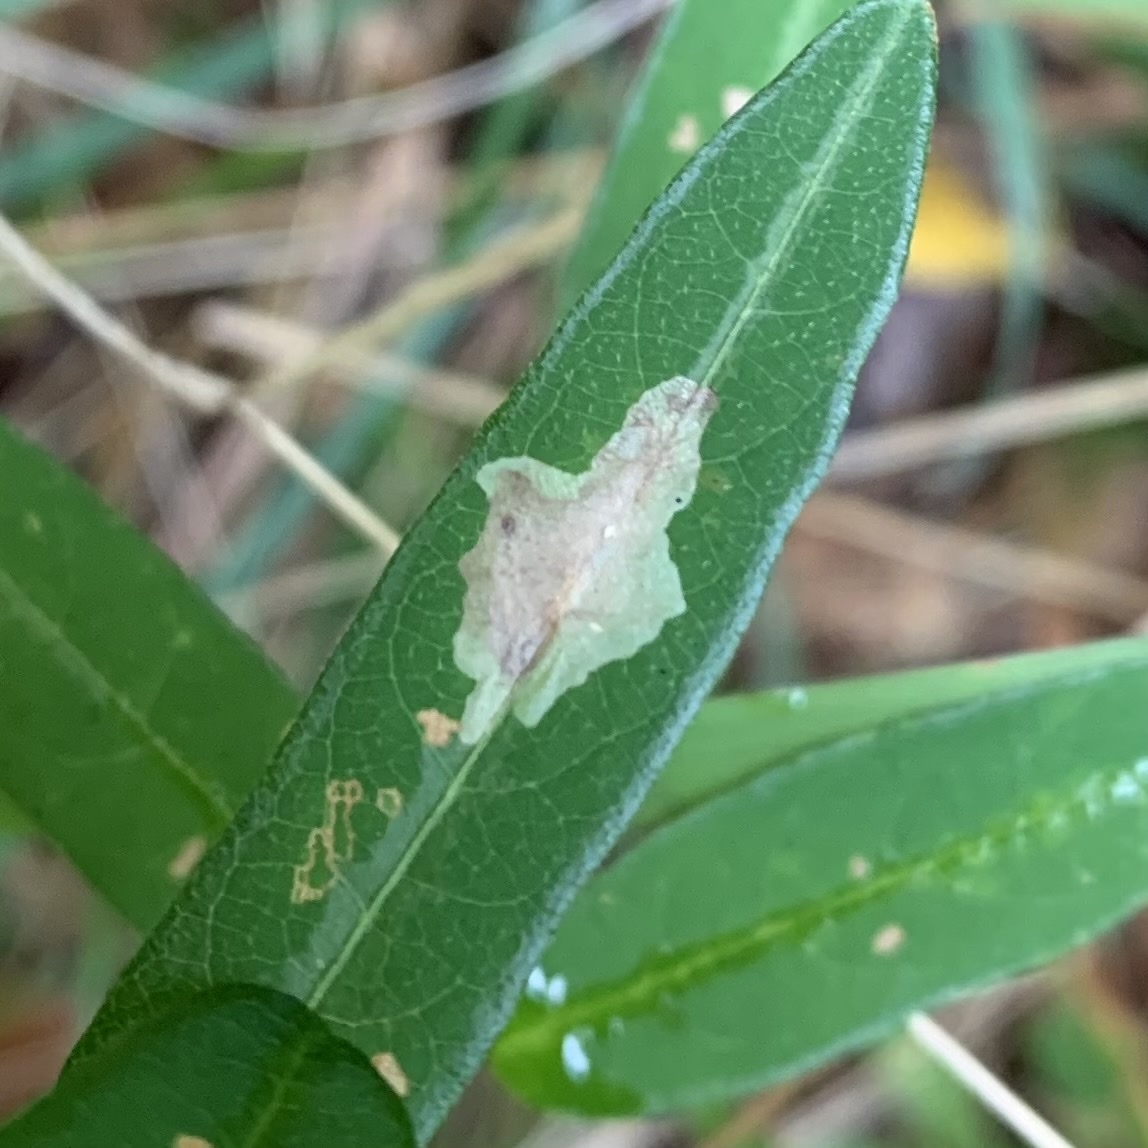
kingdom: Animalia
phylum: Arthropoda
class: Insecta
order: Lepidoptera
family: Gracillariidae
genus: Parectopa
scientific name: Parectopa robiniella
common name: Locust digitate leafminer
